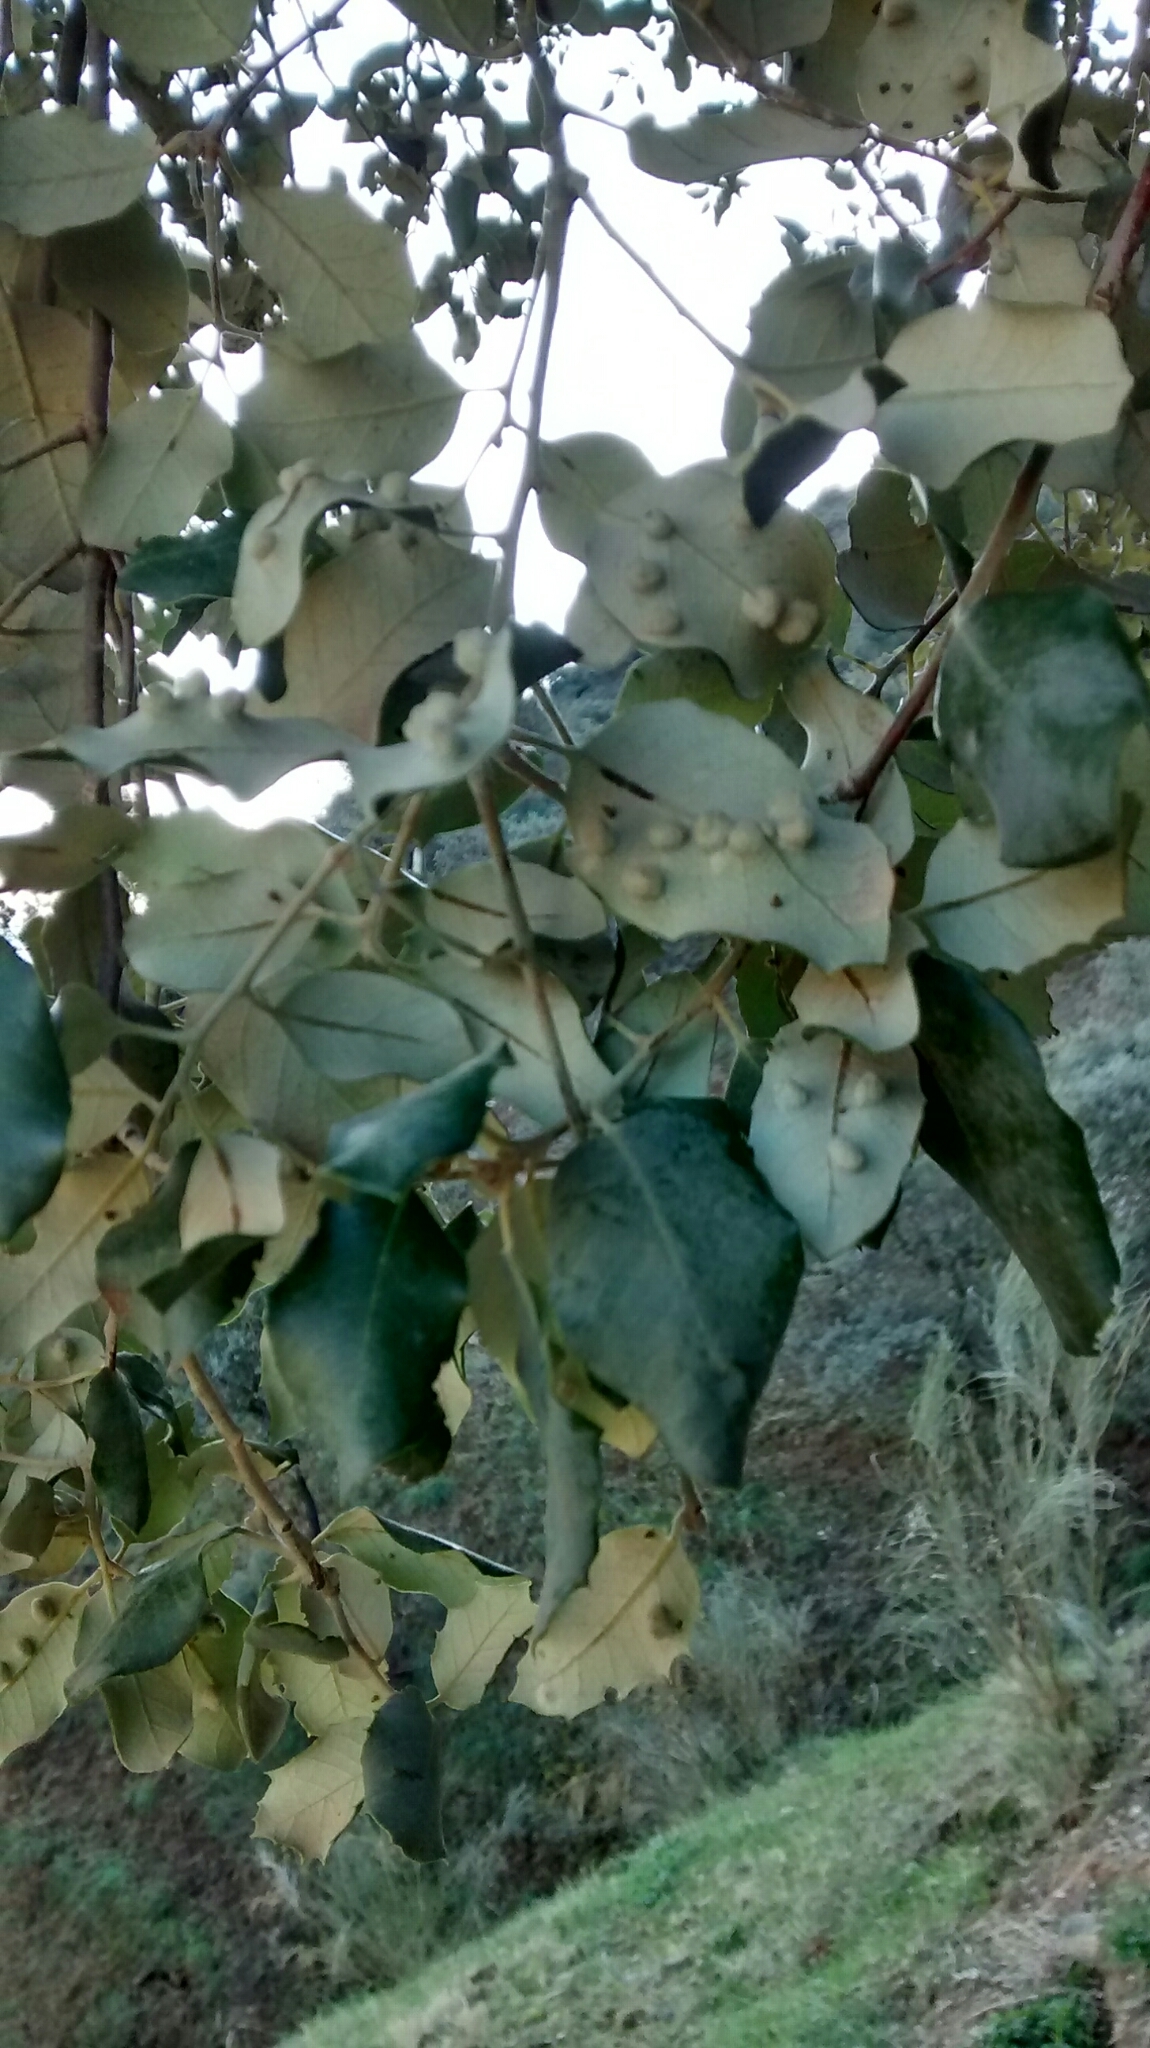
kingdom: Animalia
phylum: Arthropoda
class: Insecta
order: Diptera
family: Cecidomyiidae
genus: Dryomyia
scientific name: Dryomyia lichtensteinii
